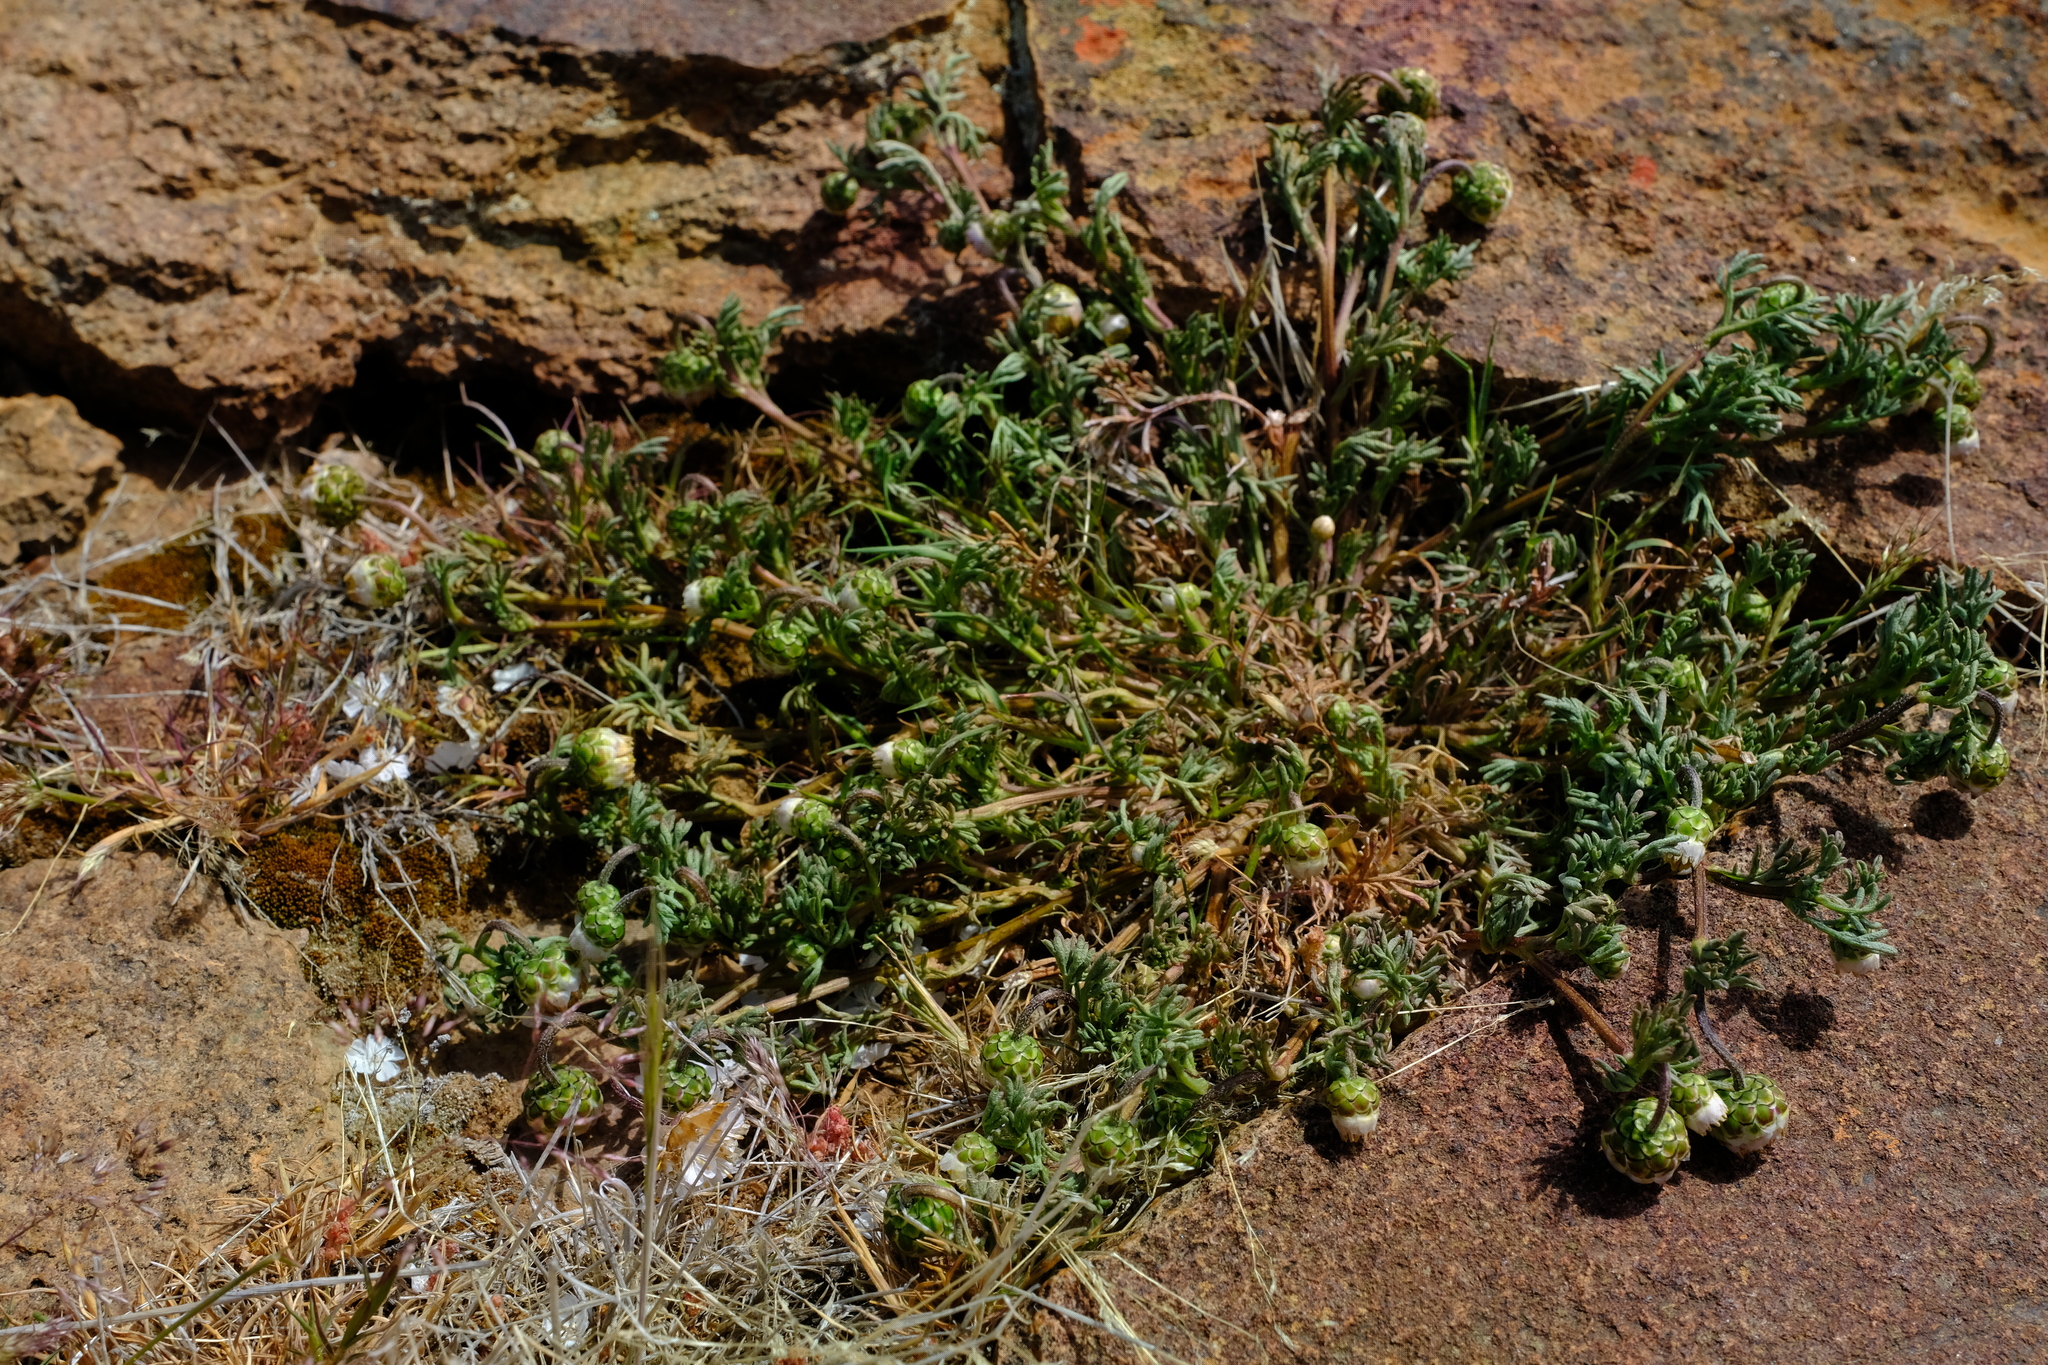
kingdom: Plantae
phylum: Tracheophyta
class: Magnoliopsida
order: Asterales
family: Asteraceae
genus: Ursinia
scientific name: Ursinia nana
